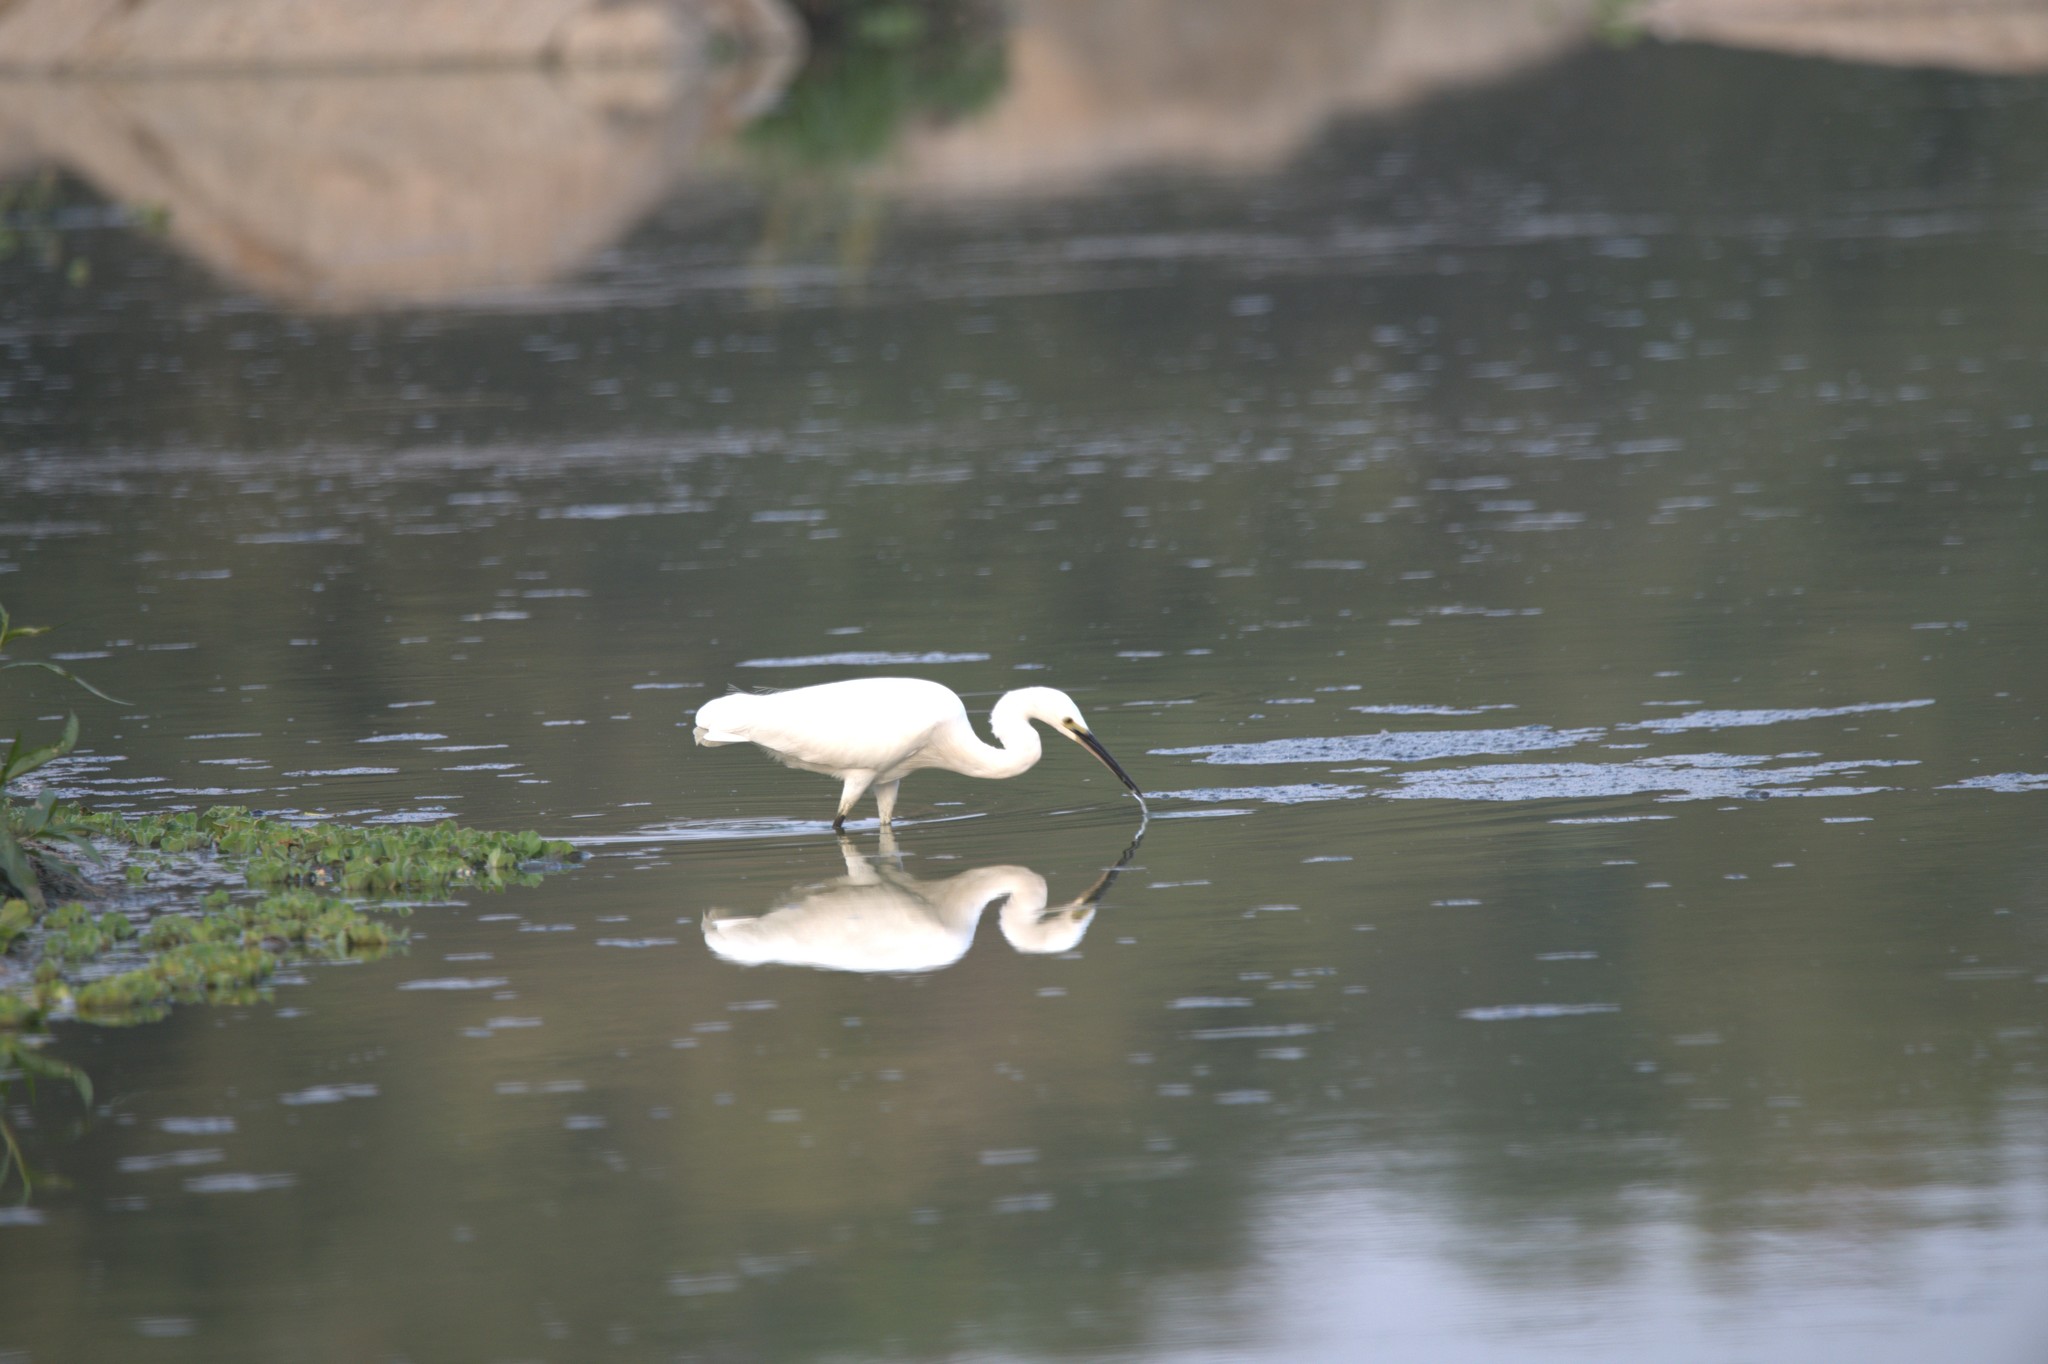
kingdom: Animalia
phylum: Chordata
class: Aves
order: Pelecaniformes
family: Ardeidae
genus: Egretta
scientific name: Egretta garzetta
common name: Little egret
